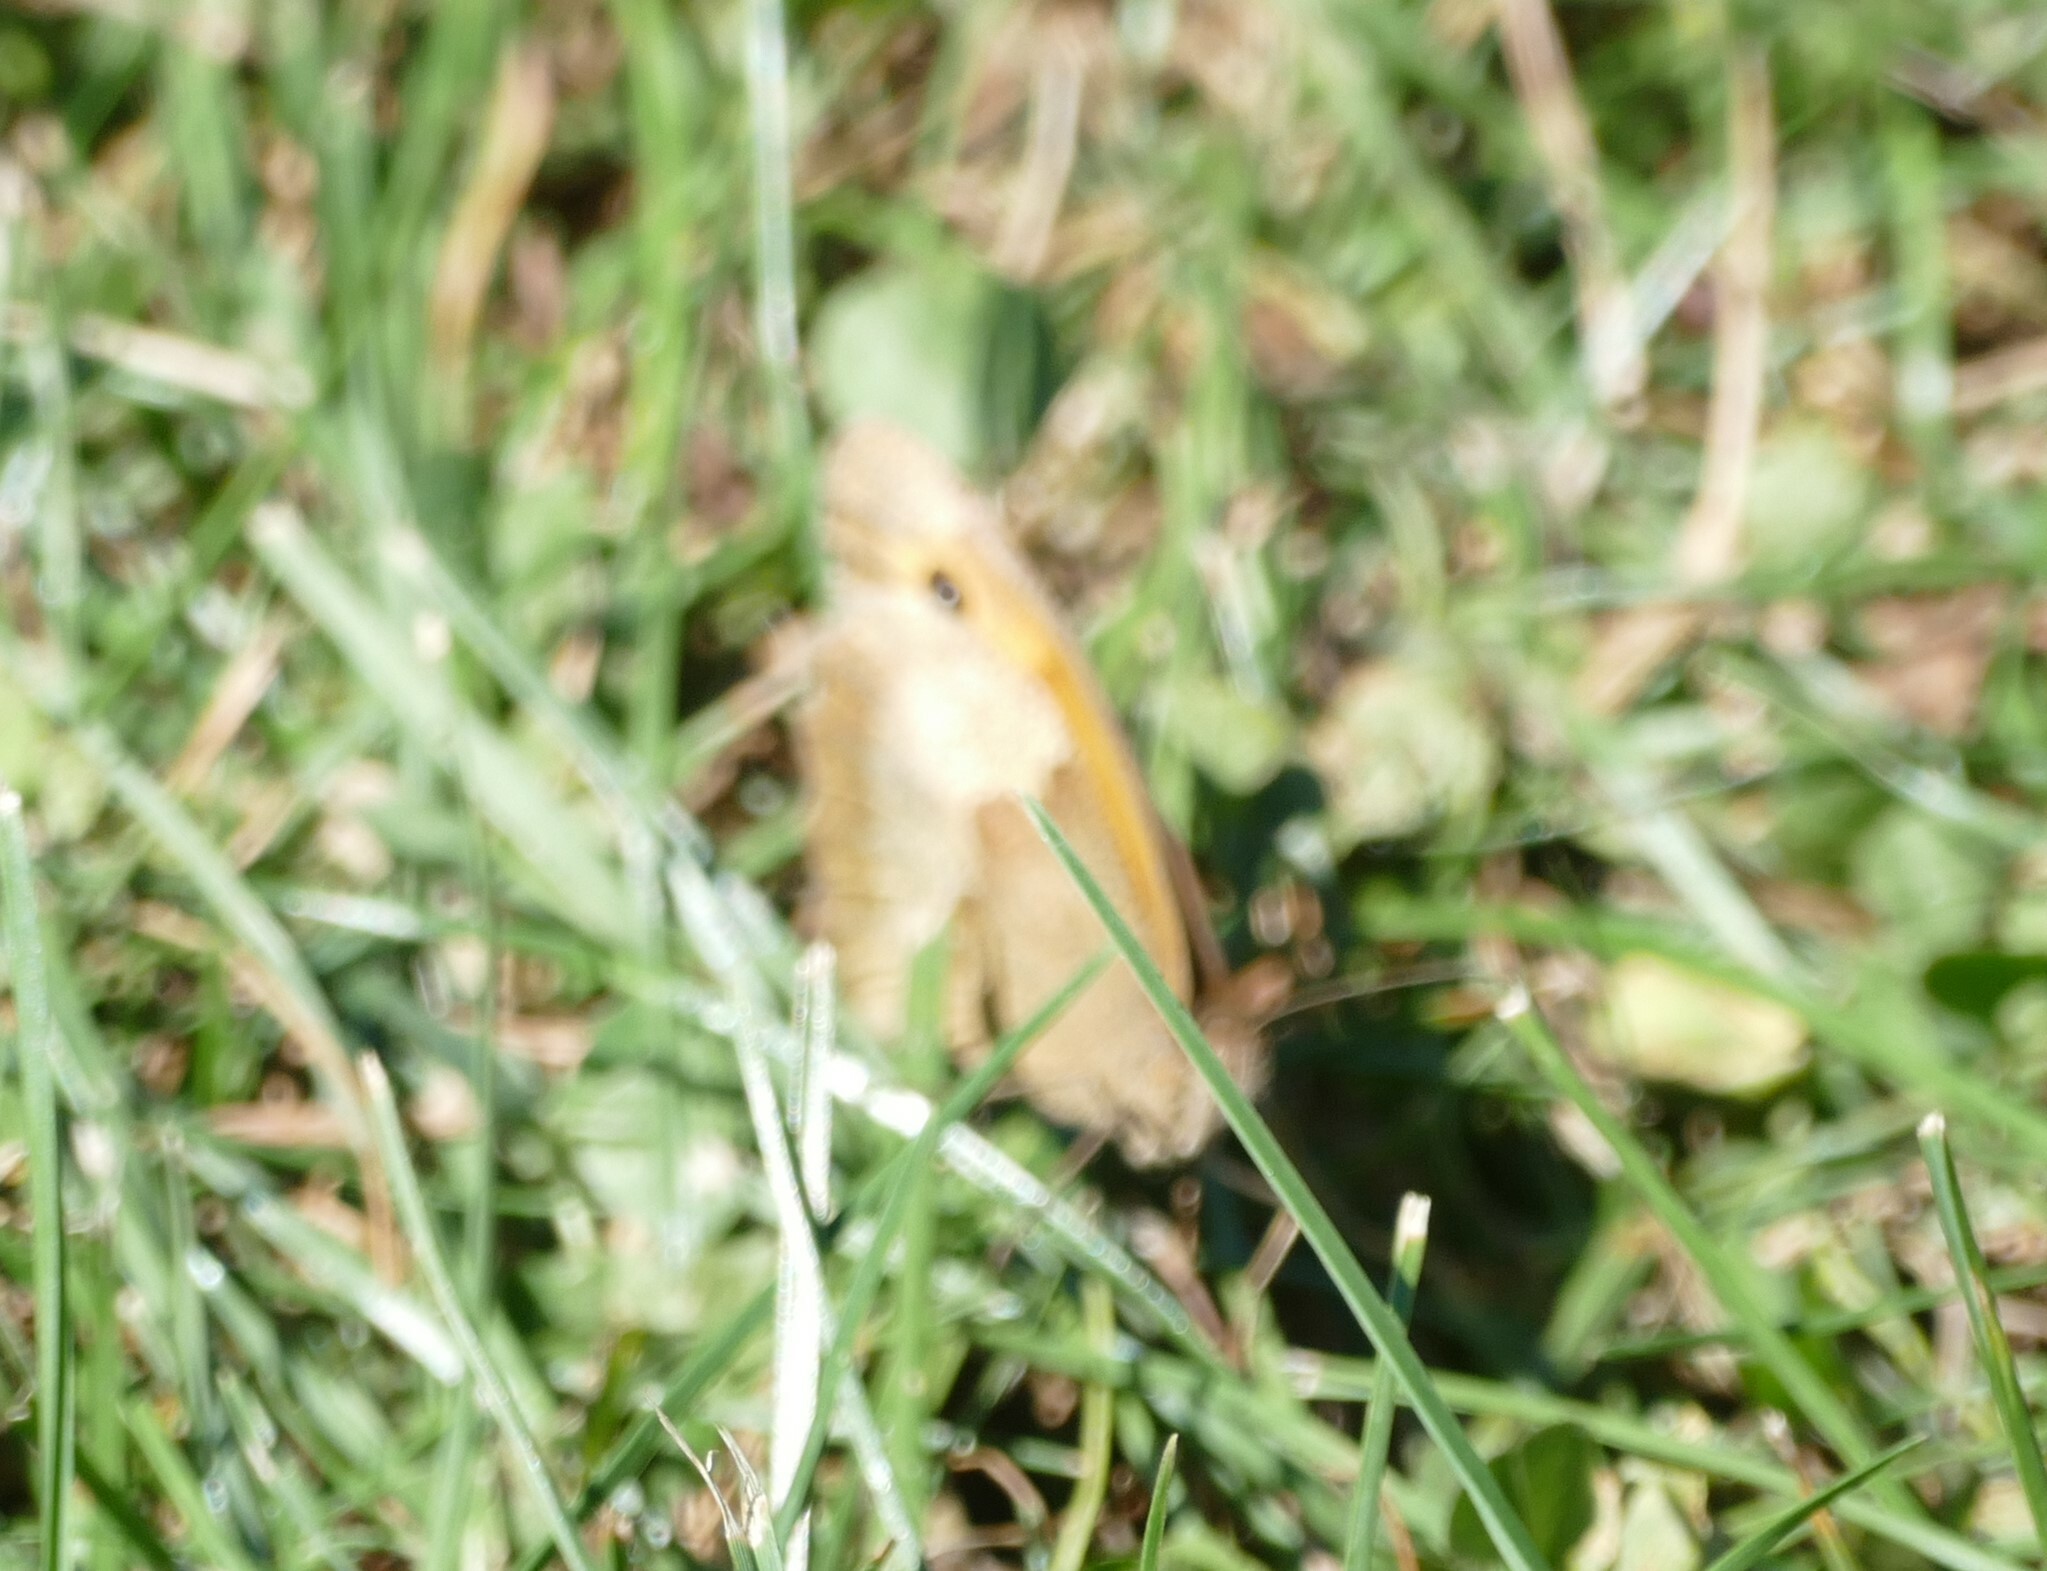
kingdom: Animalia
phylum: Arthropoda
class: Insecta
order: Lepidoptera
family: Nymphalidae
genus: Maniola
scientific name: Maniola jurtina
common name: Meadow brown
